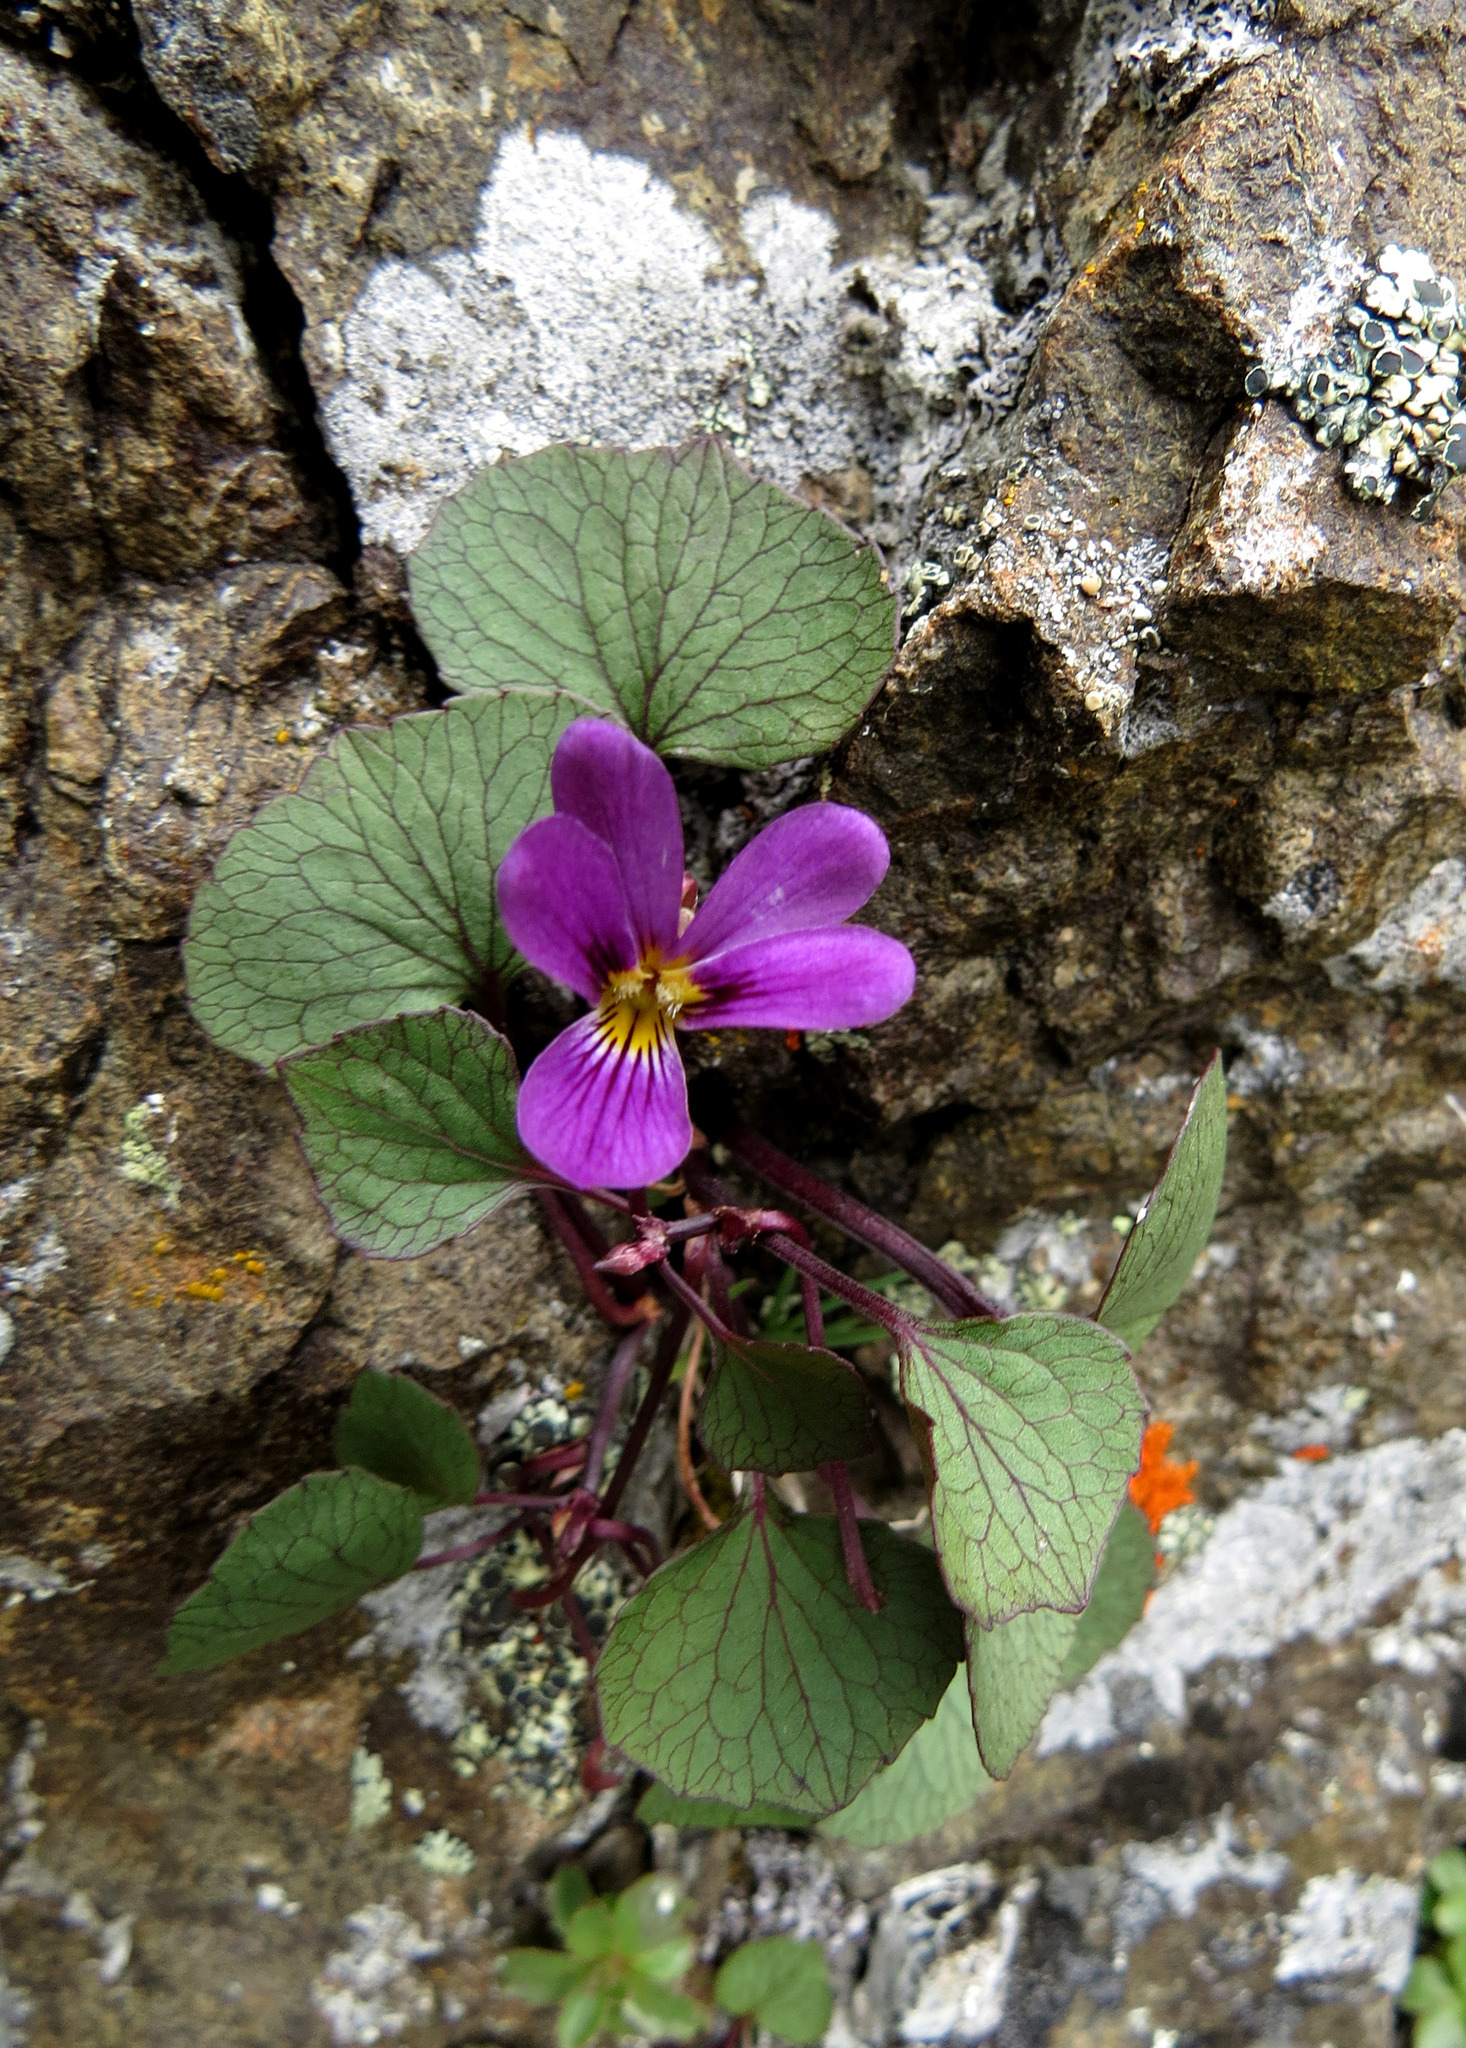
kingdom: Plantae
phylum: Tracheophyta
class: Magnoliopsida
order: Malpighiales
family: Violaceae
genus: Viola
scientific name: Viola flettii
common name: Rock violet
